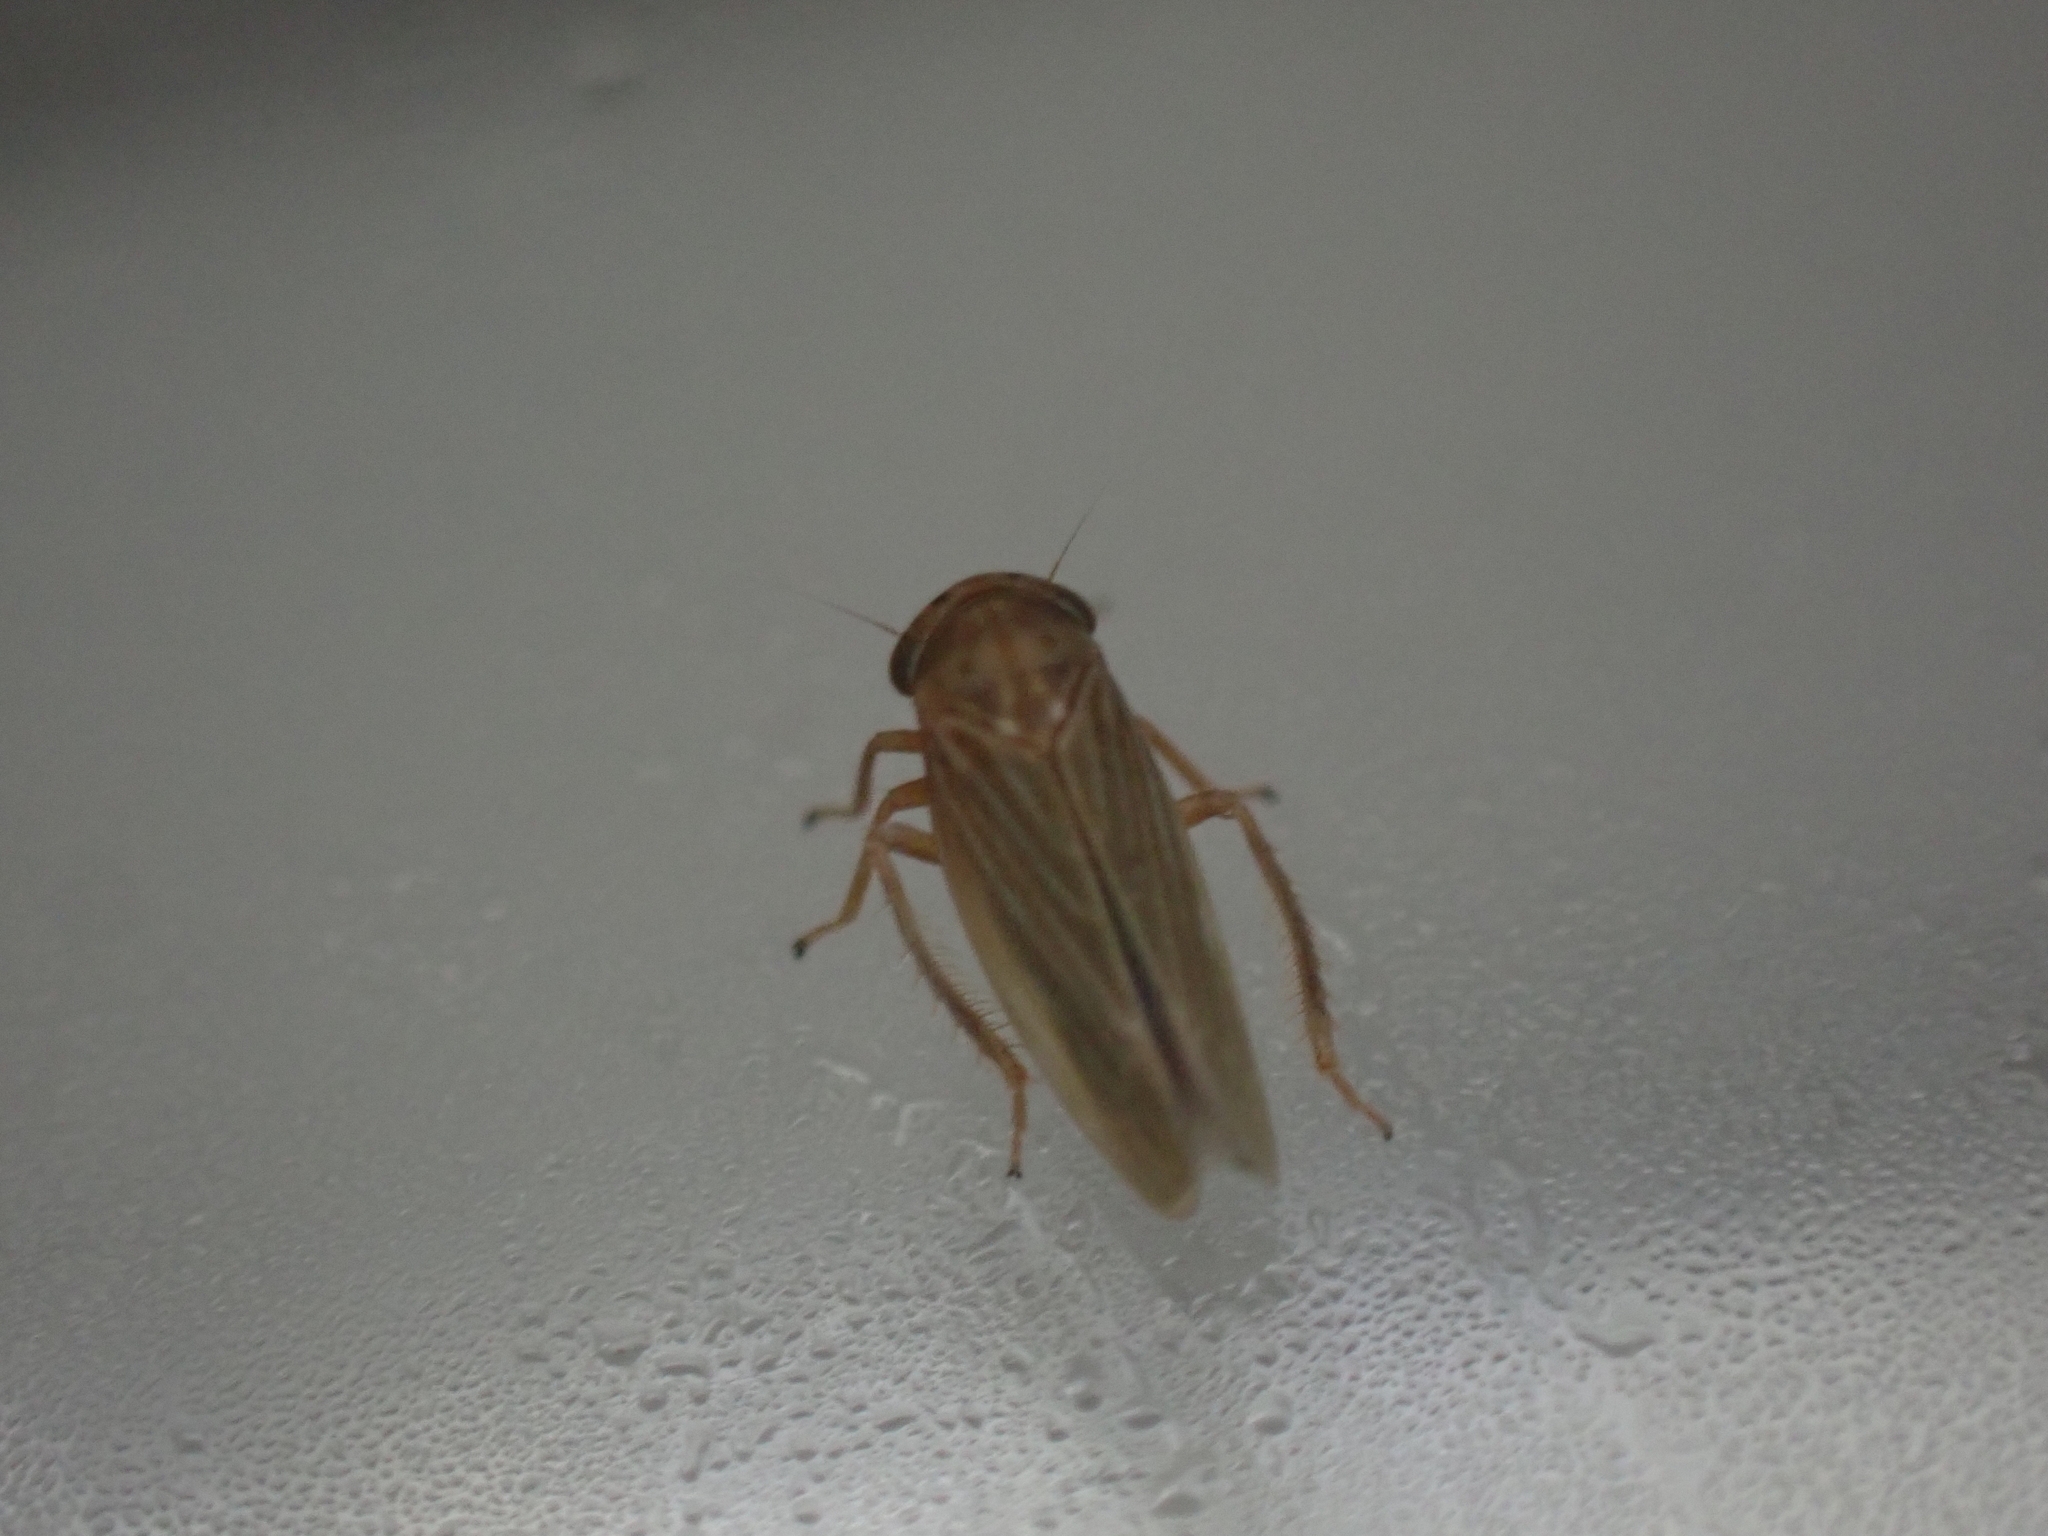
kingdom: Animalia
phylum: Arthropoda
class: Insecta
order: Hemiptera
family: Cicadellidae
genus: Agallia
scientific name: Agallia constricta
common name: The constricted leafhopper
